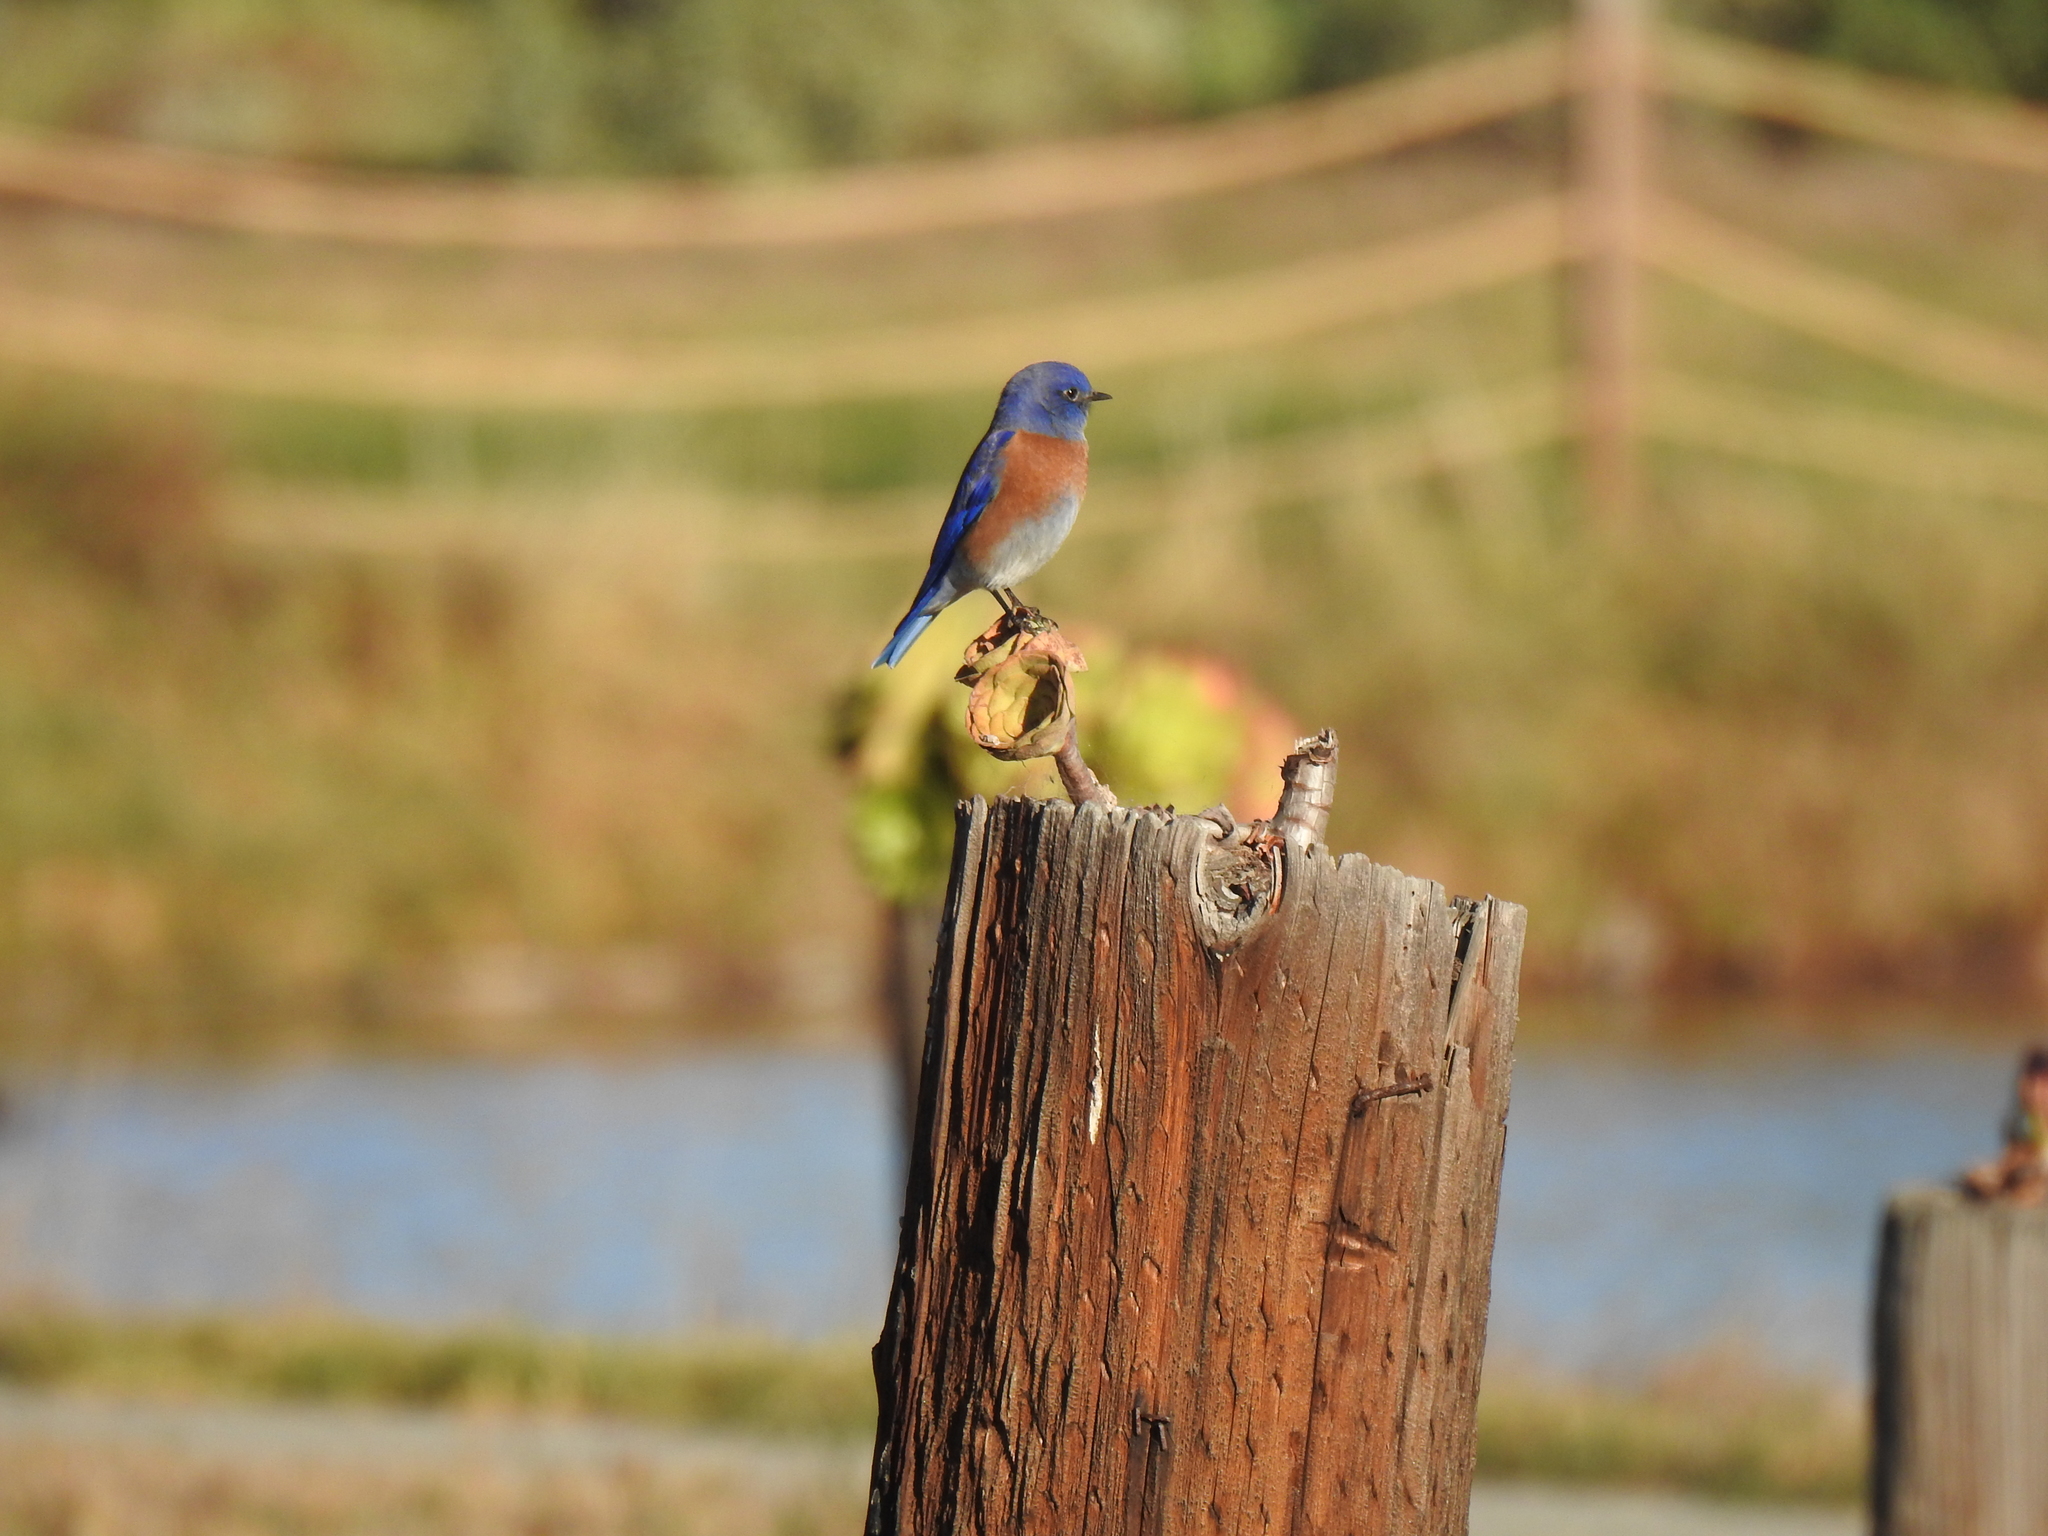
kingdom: Animalia
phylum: Chordata
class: Aves
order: Passeriformes
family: Turdidae
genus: Sialia
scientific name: Sialia mexicana
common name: Western bluebird
